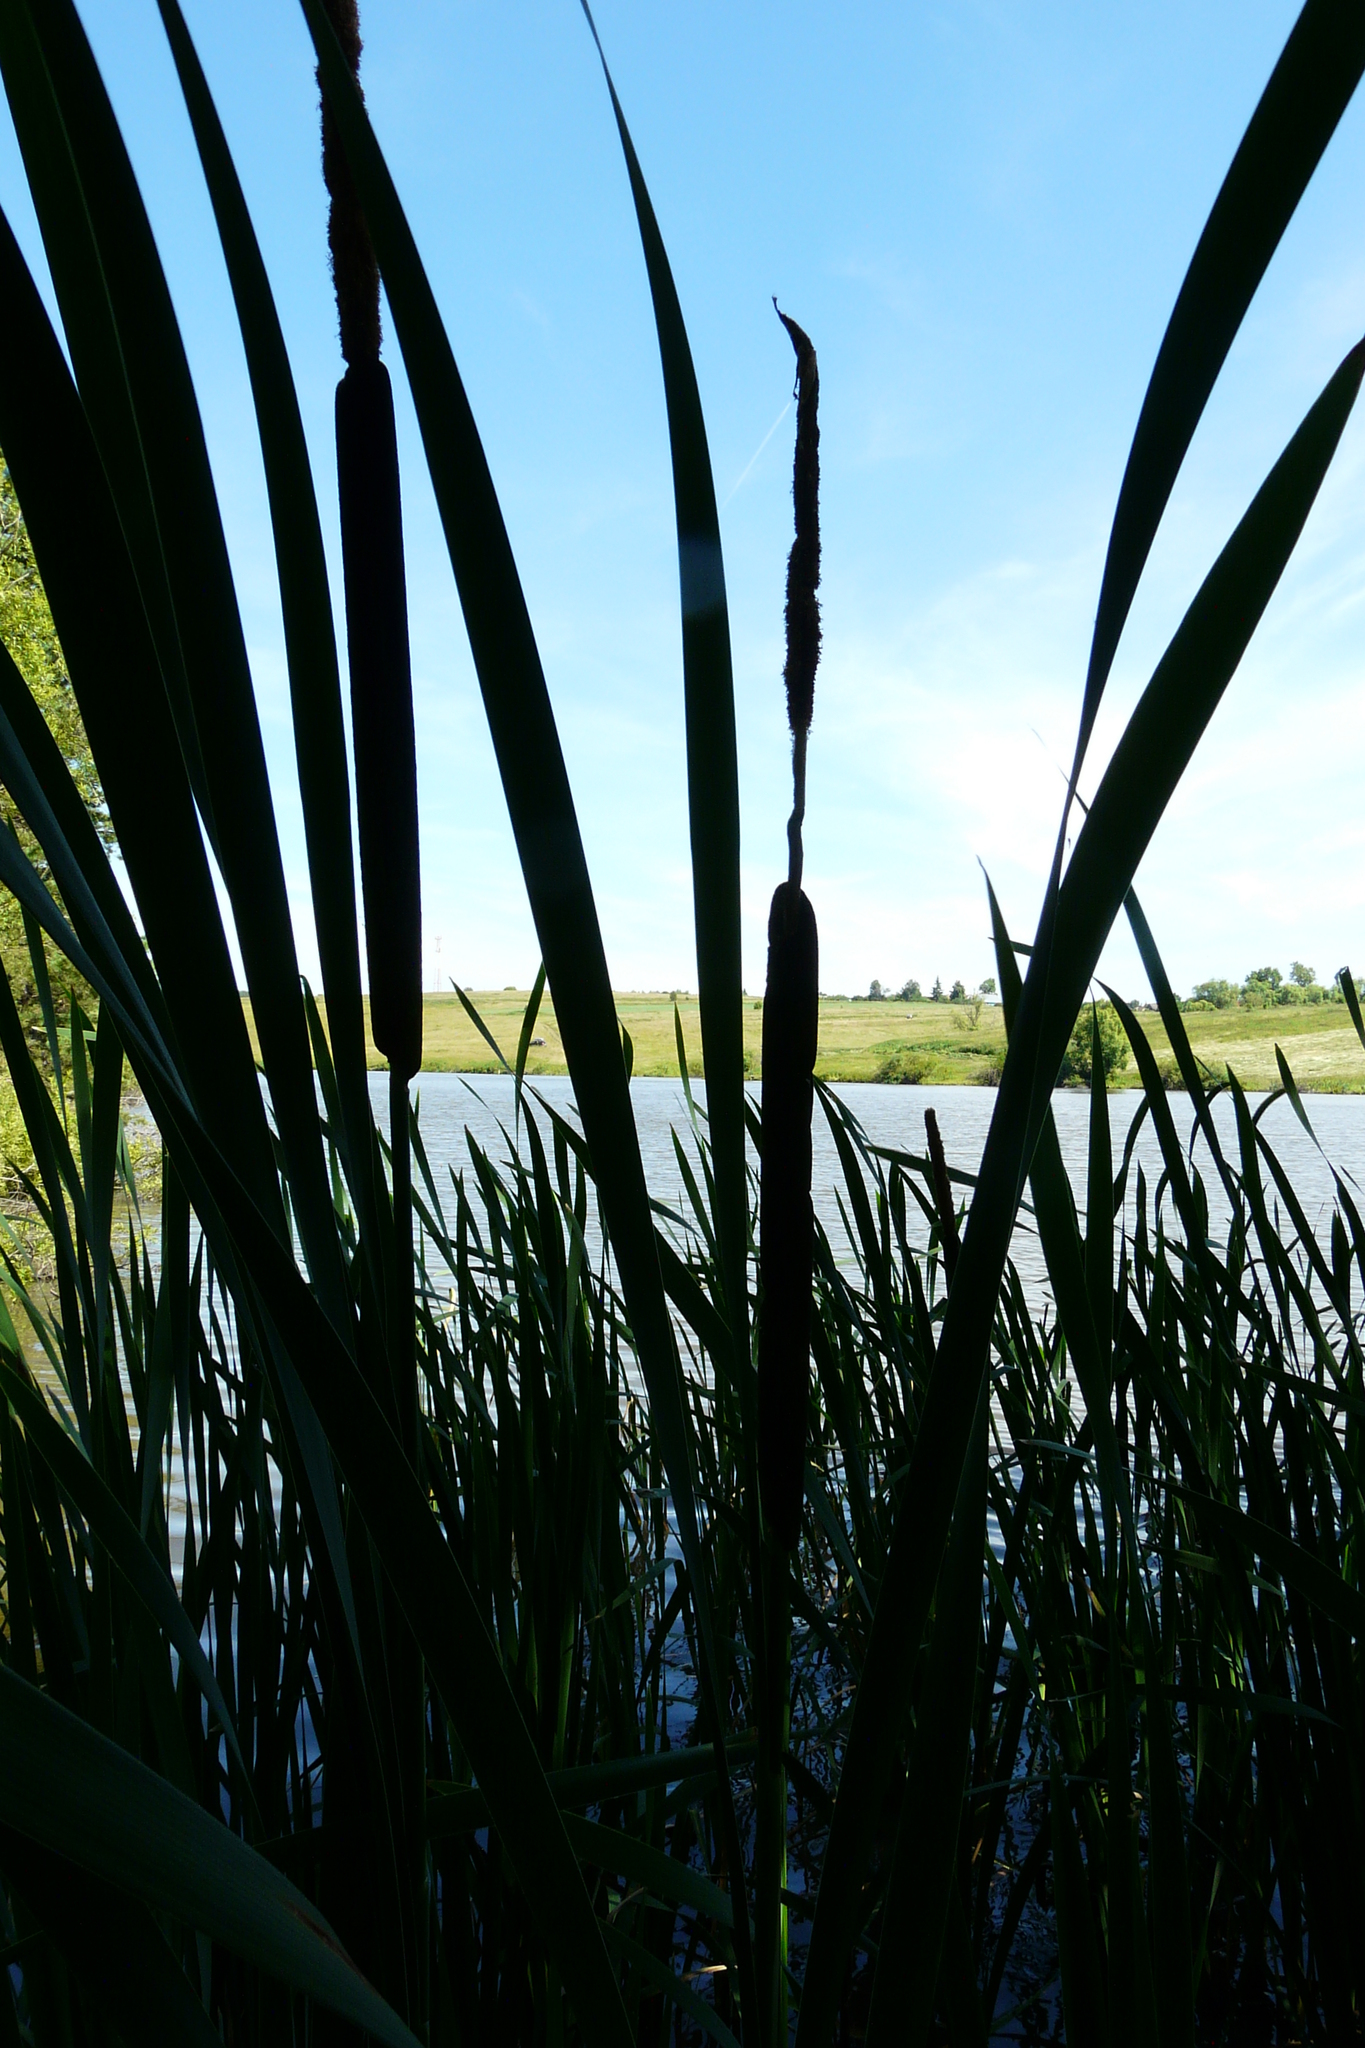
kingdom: Plantae
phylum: Tracheophyta
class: Liliopsida
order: Poales
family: Typhaceae
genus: Typha
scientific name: Typha latifolia
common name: Broadleaf cattail
